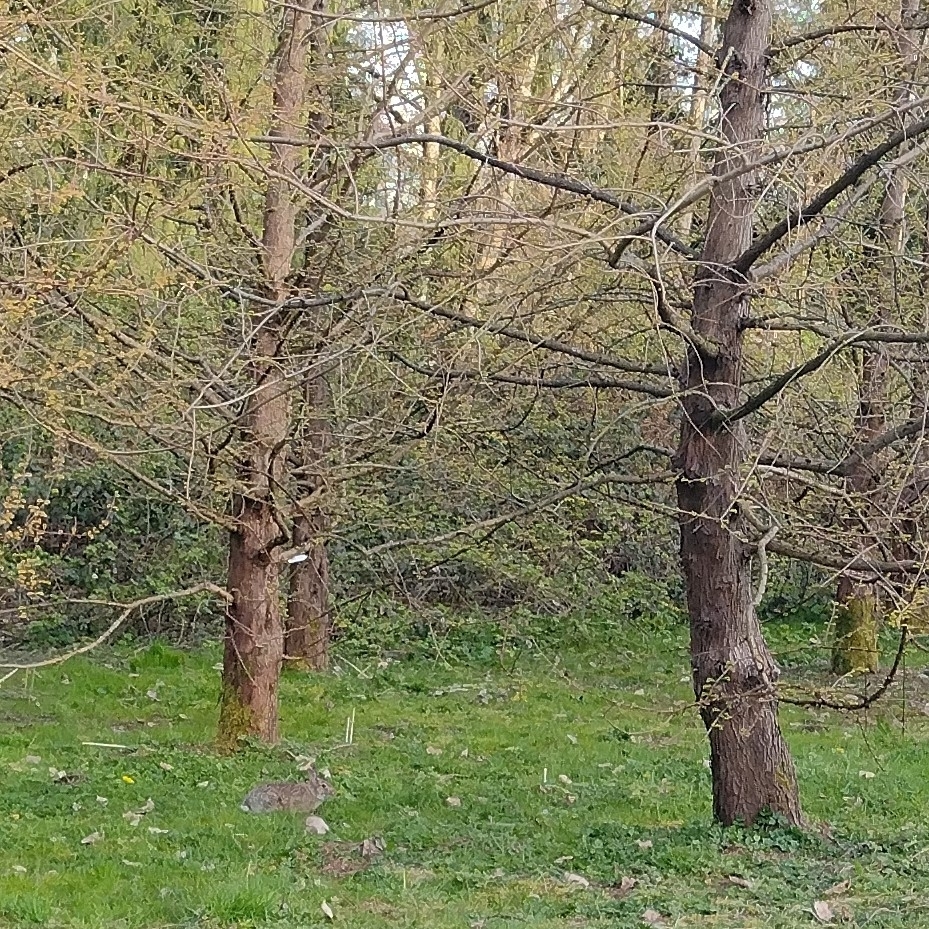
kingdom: Animalia
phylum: Chordata
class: Mammalia
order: Lagomorpha
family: Leporidae
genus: Sylvilagus
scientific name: Sylvilagus floridanus
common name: Eastern cottontail
